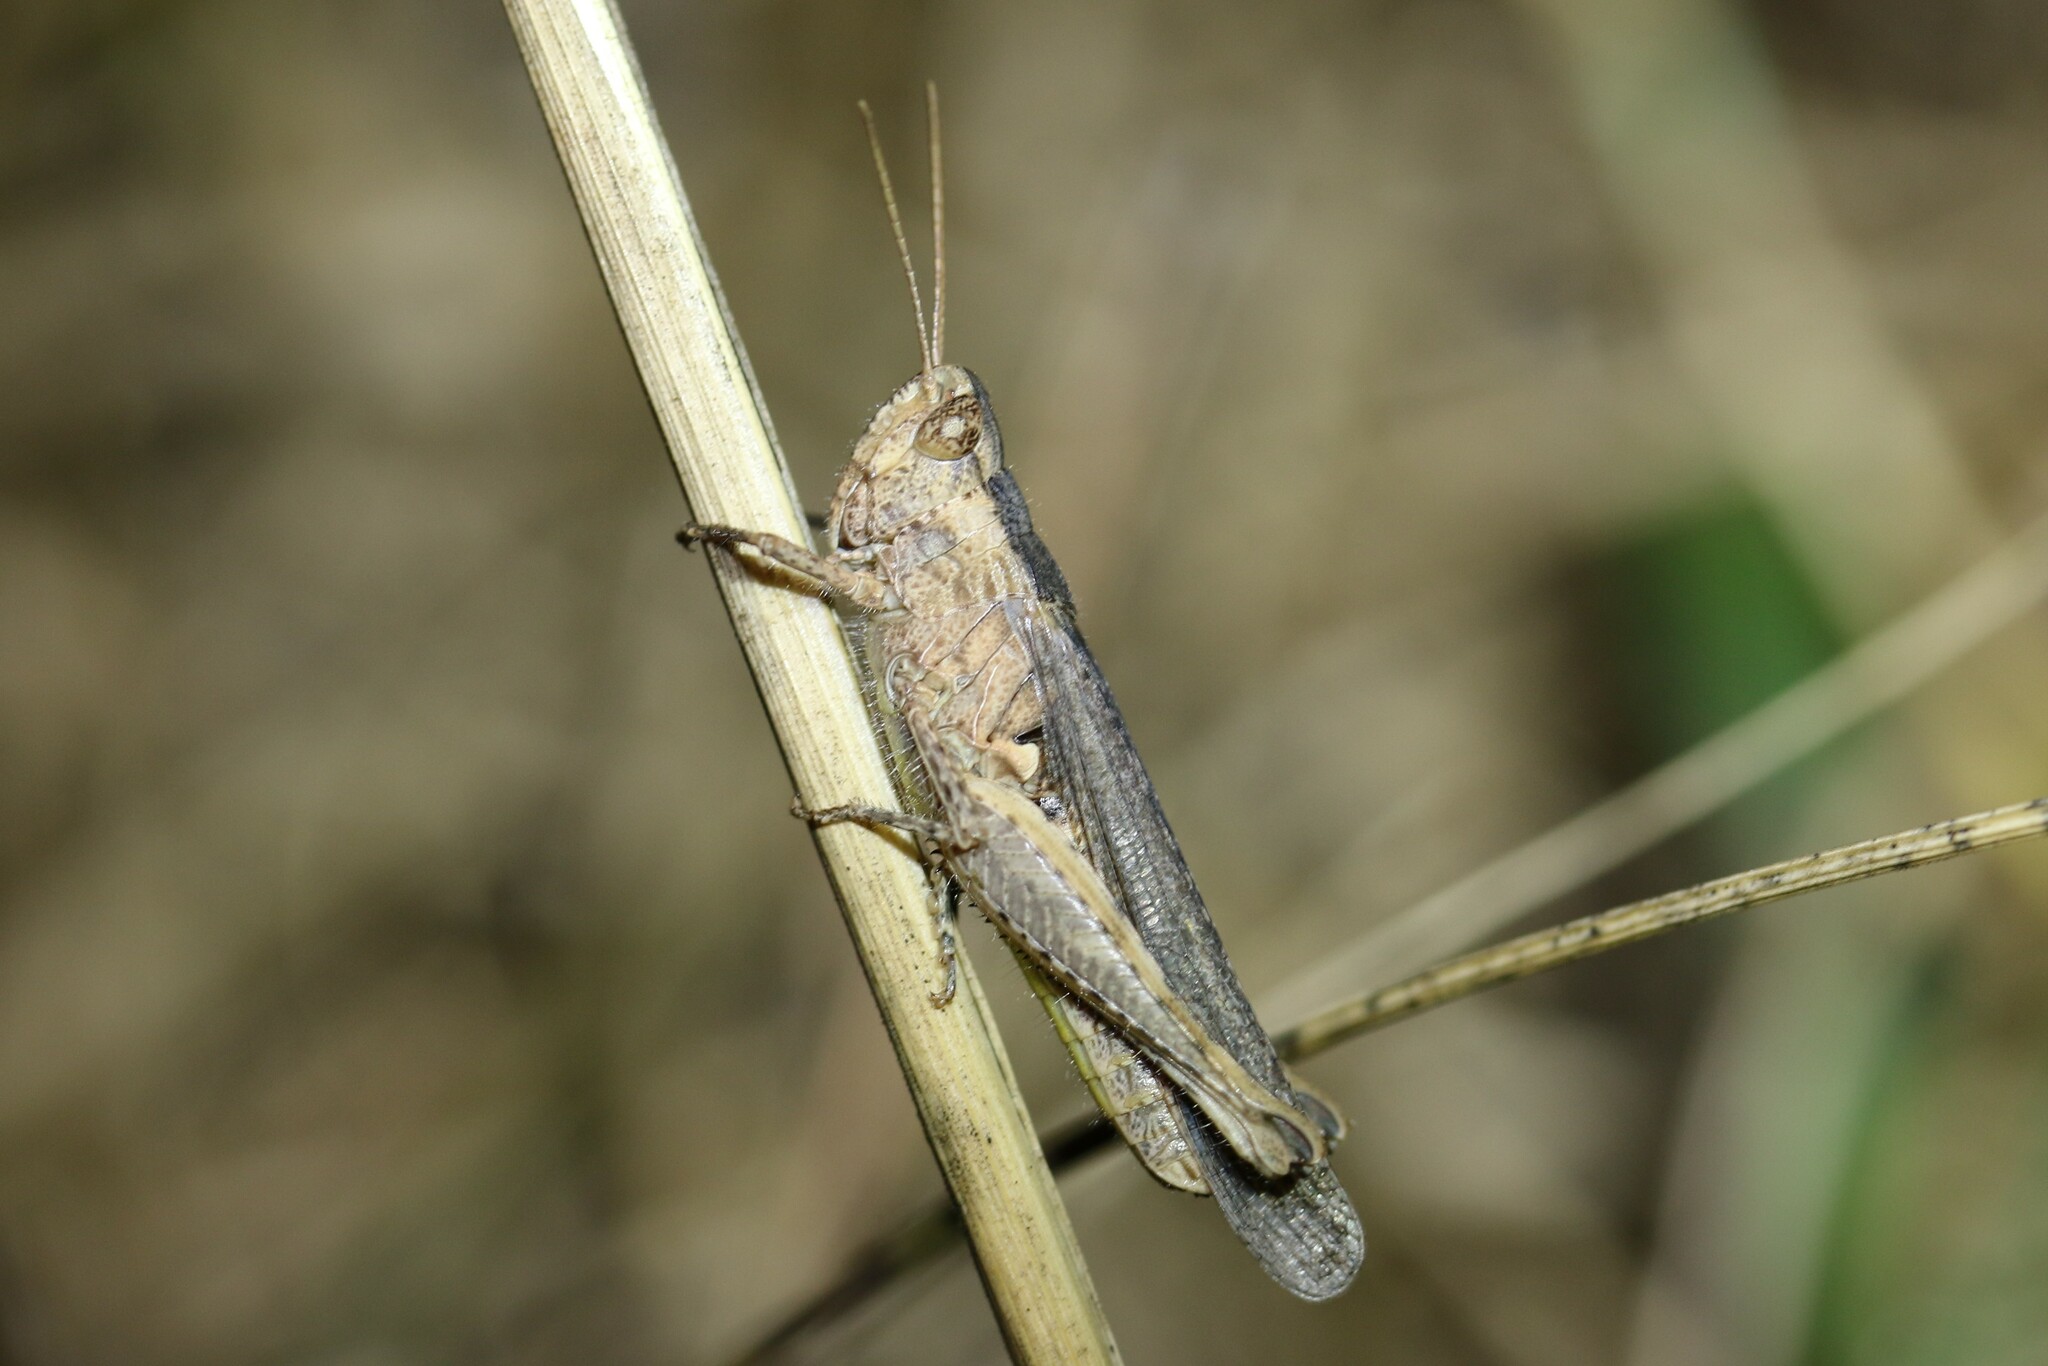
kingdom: Animalia
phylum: Arthropoda
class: Insecta
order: Orthoptera
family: Acrididae
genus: Chorthippus
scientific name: Chorthippus brunneus
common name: Field grasshopper
